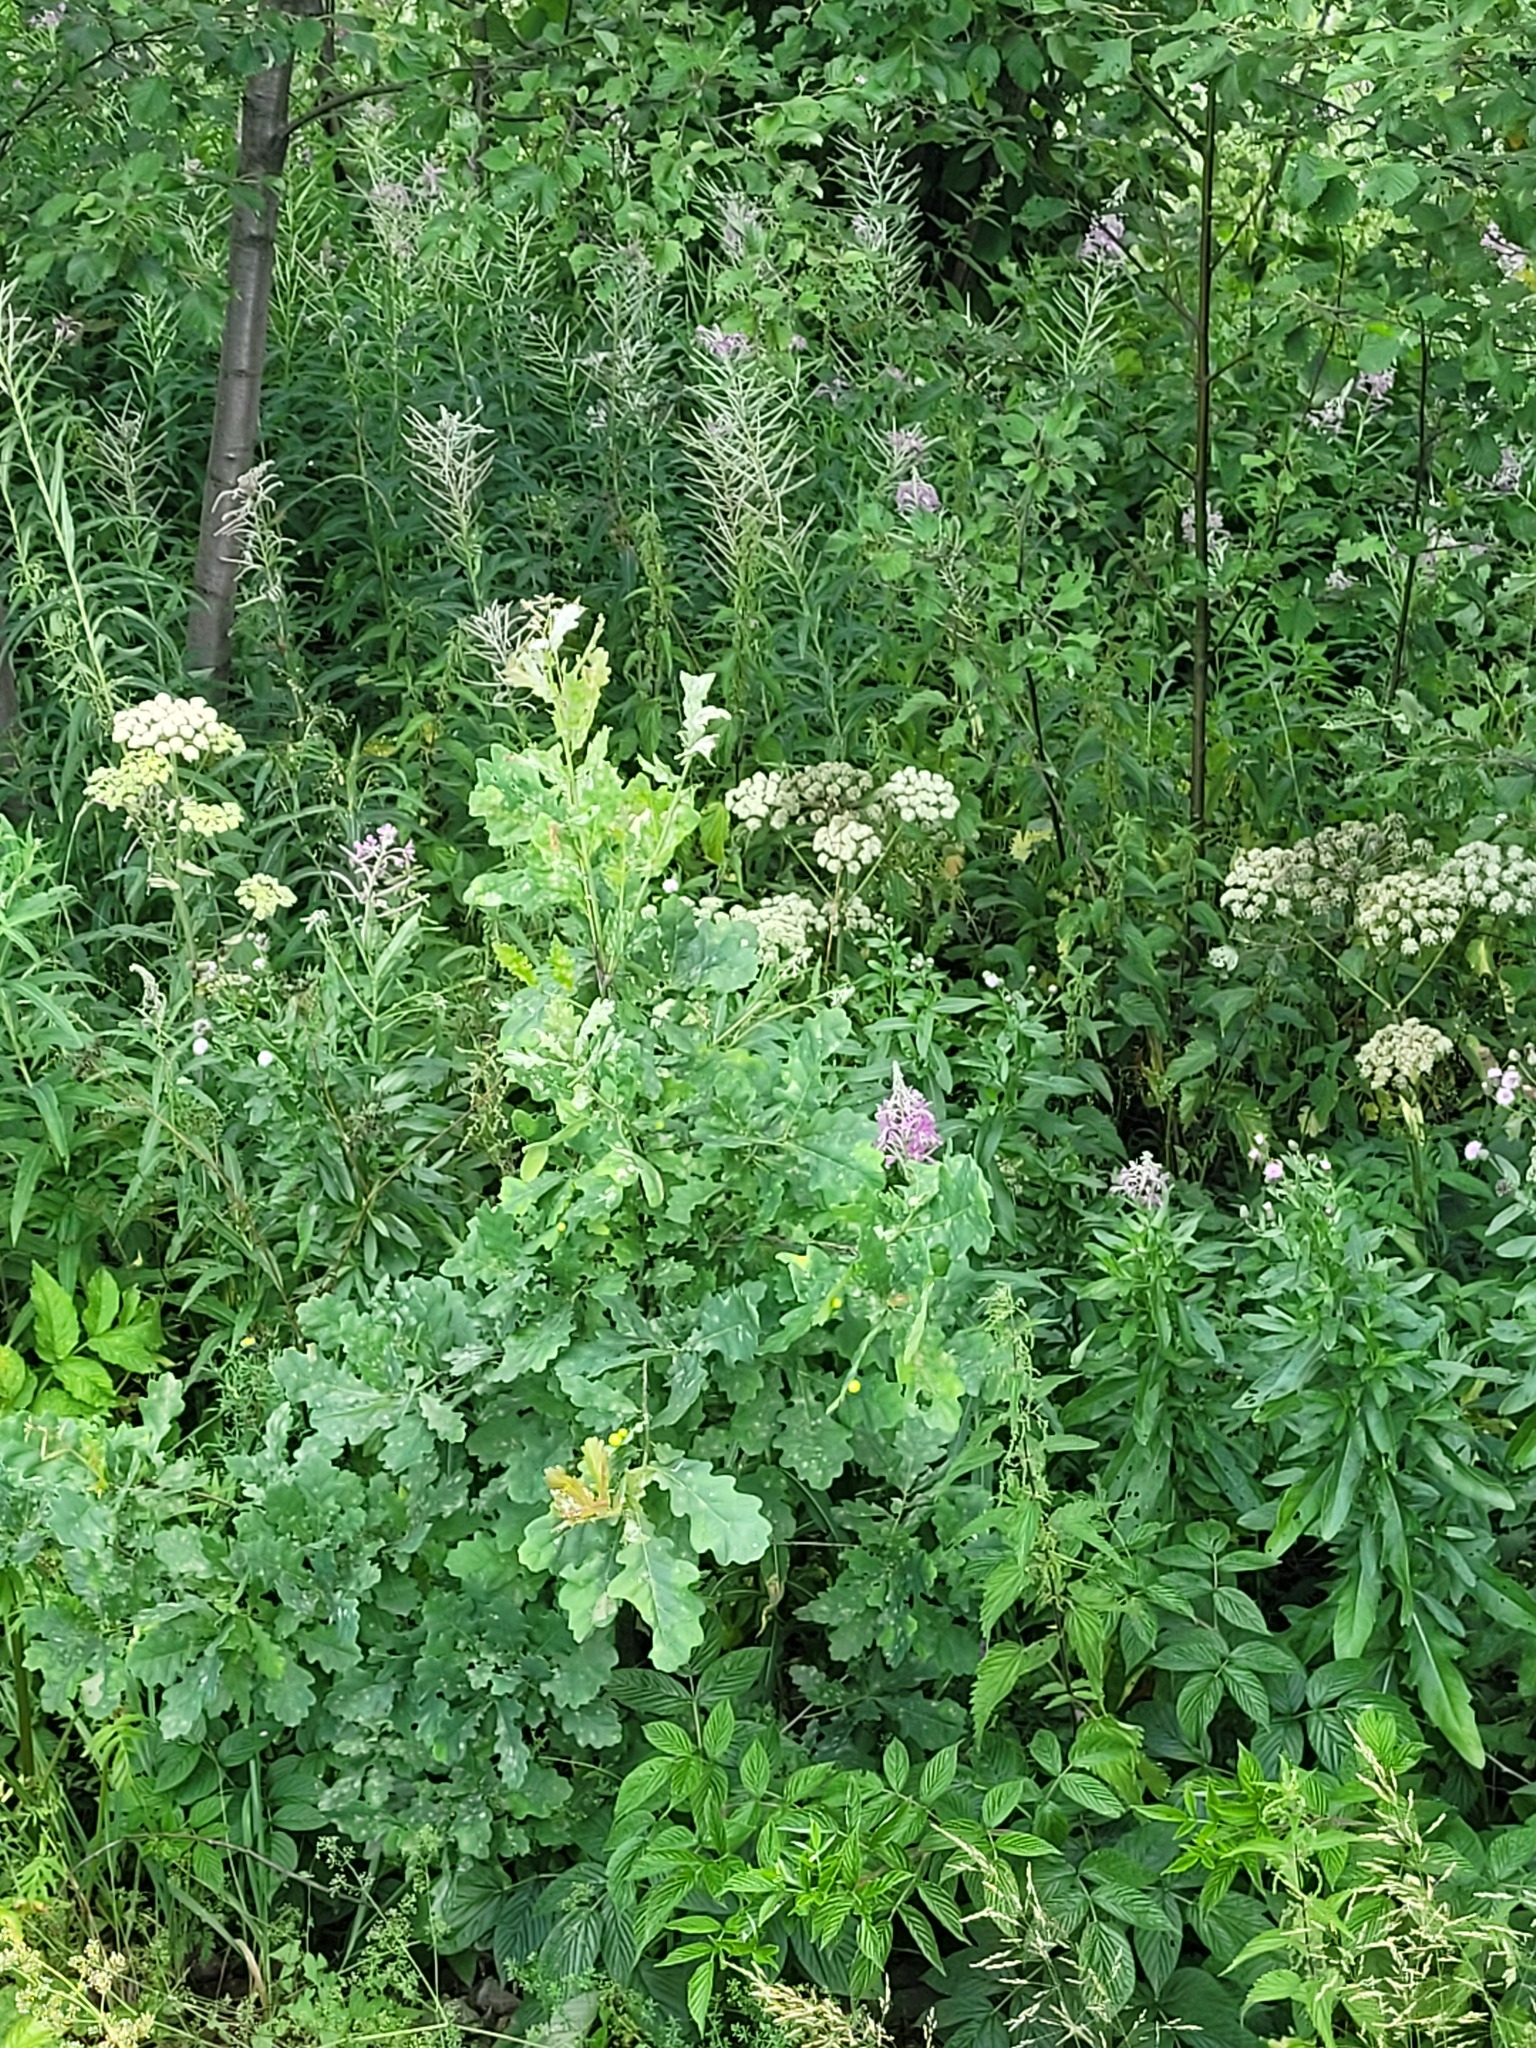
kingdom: Plantae
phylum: Tracheophyta
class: Magnoliopsida
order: Fagales
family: Fagaceae
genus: Quercus
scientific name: Quercus robur
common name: Pedunculate oak
